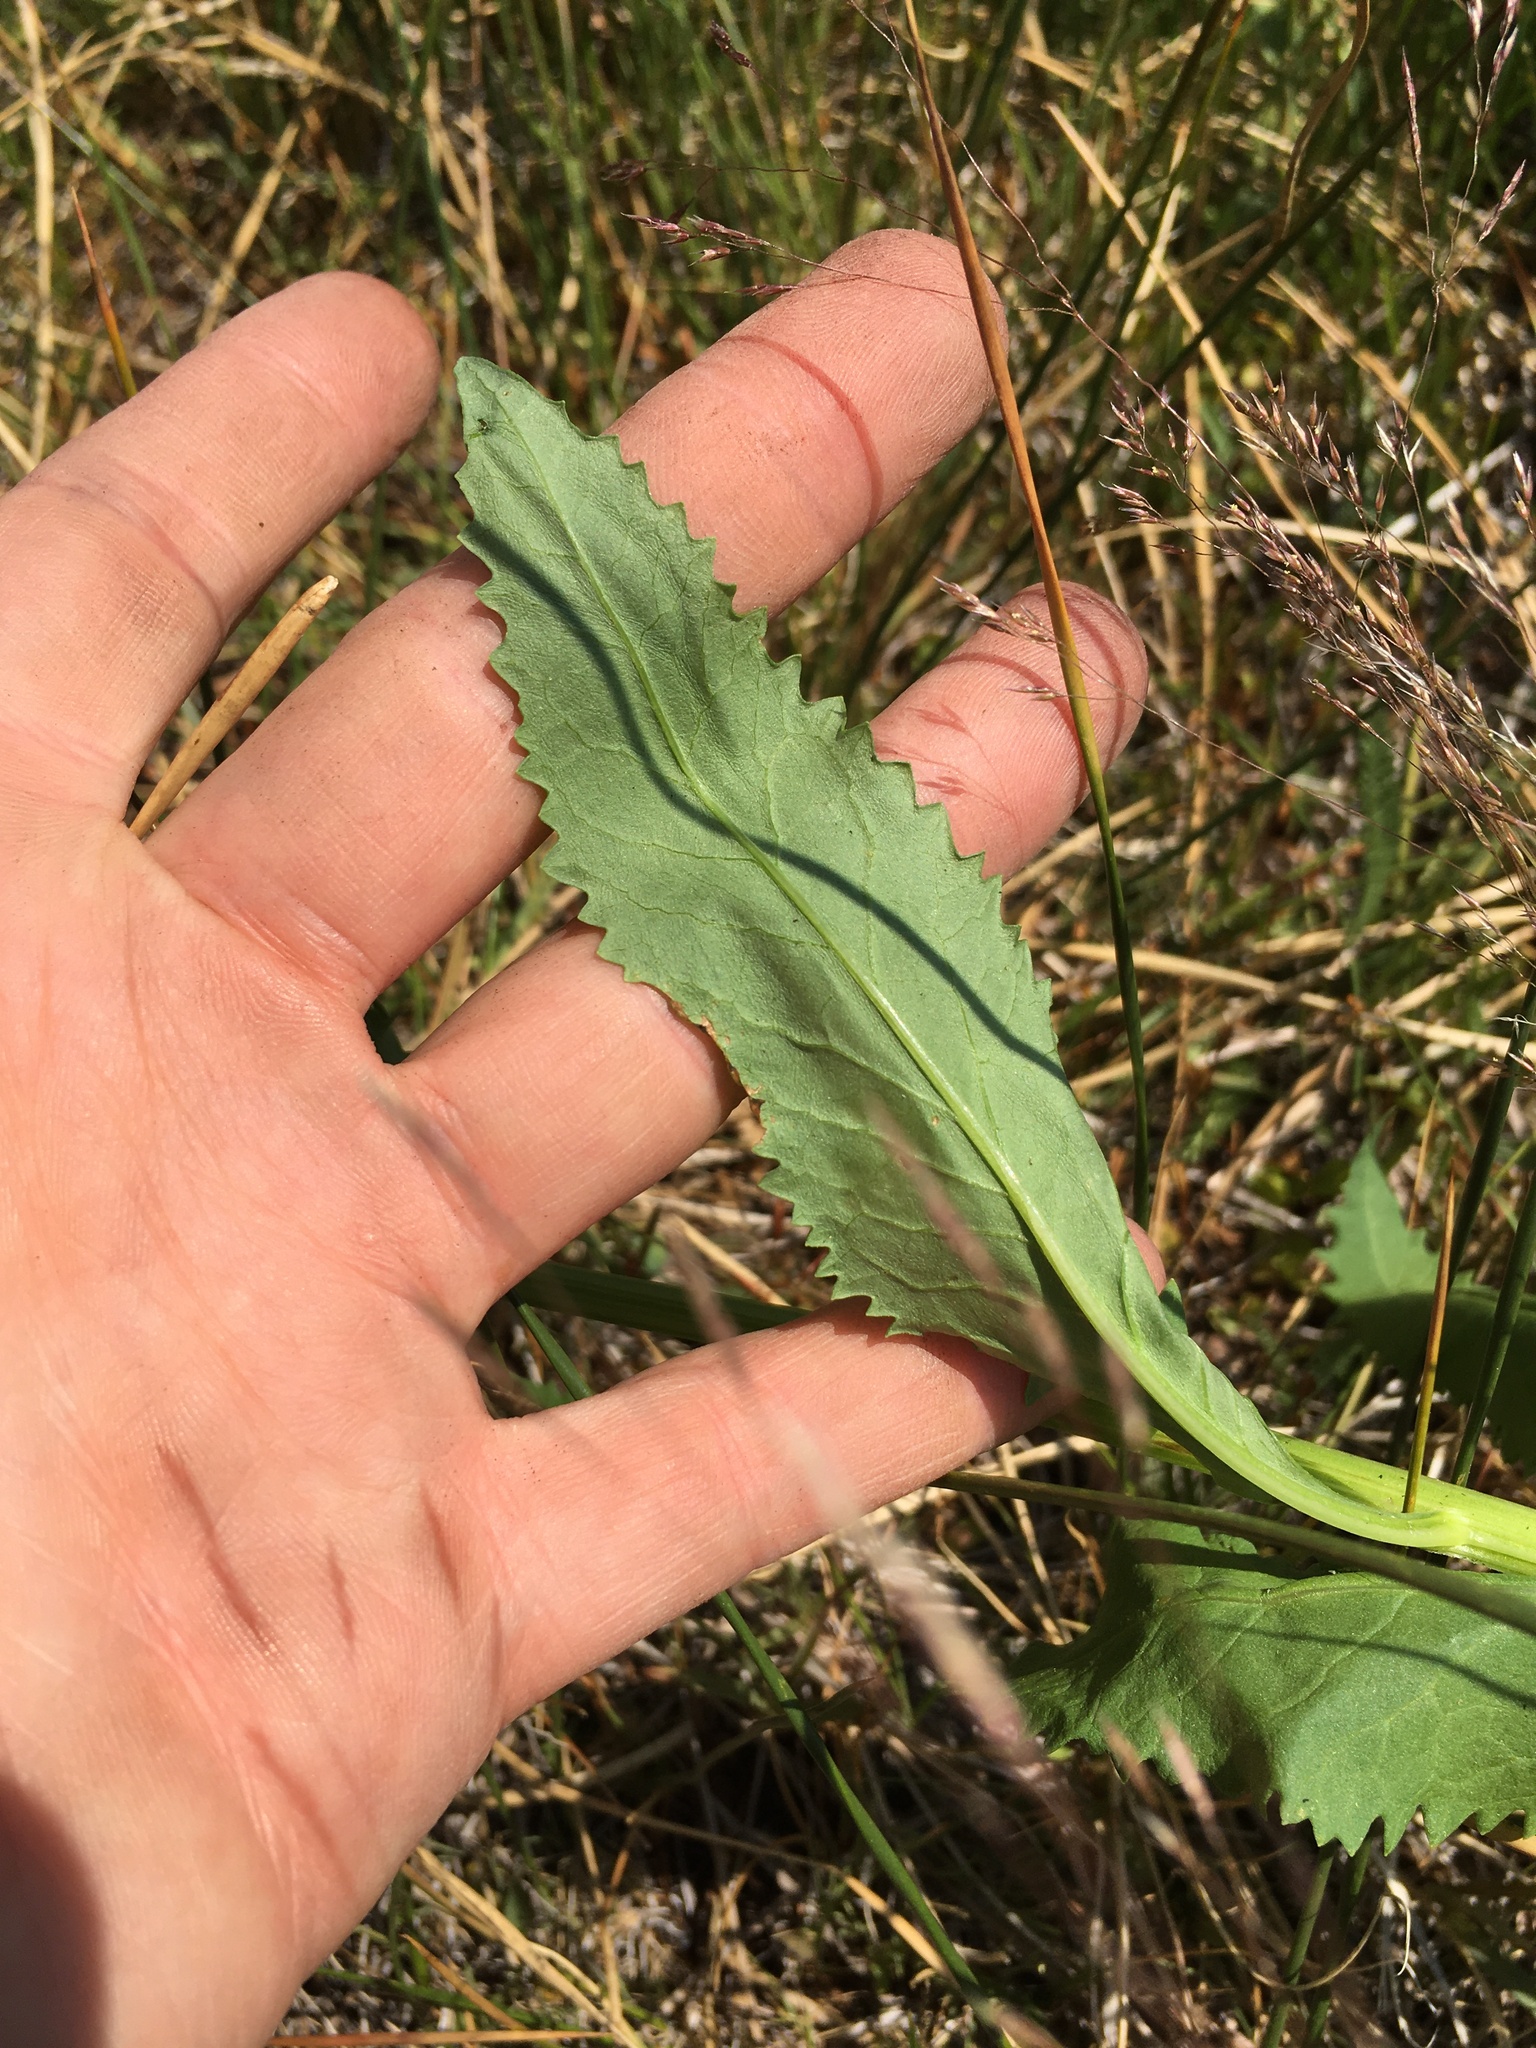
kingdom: Plantae
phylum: Tracheophyta
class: Magnoliopsida
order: Asterales
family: Asteraceae
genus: Senecio
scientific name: Senecio triangularis
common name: Arrowleaf butterweed
